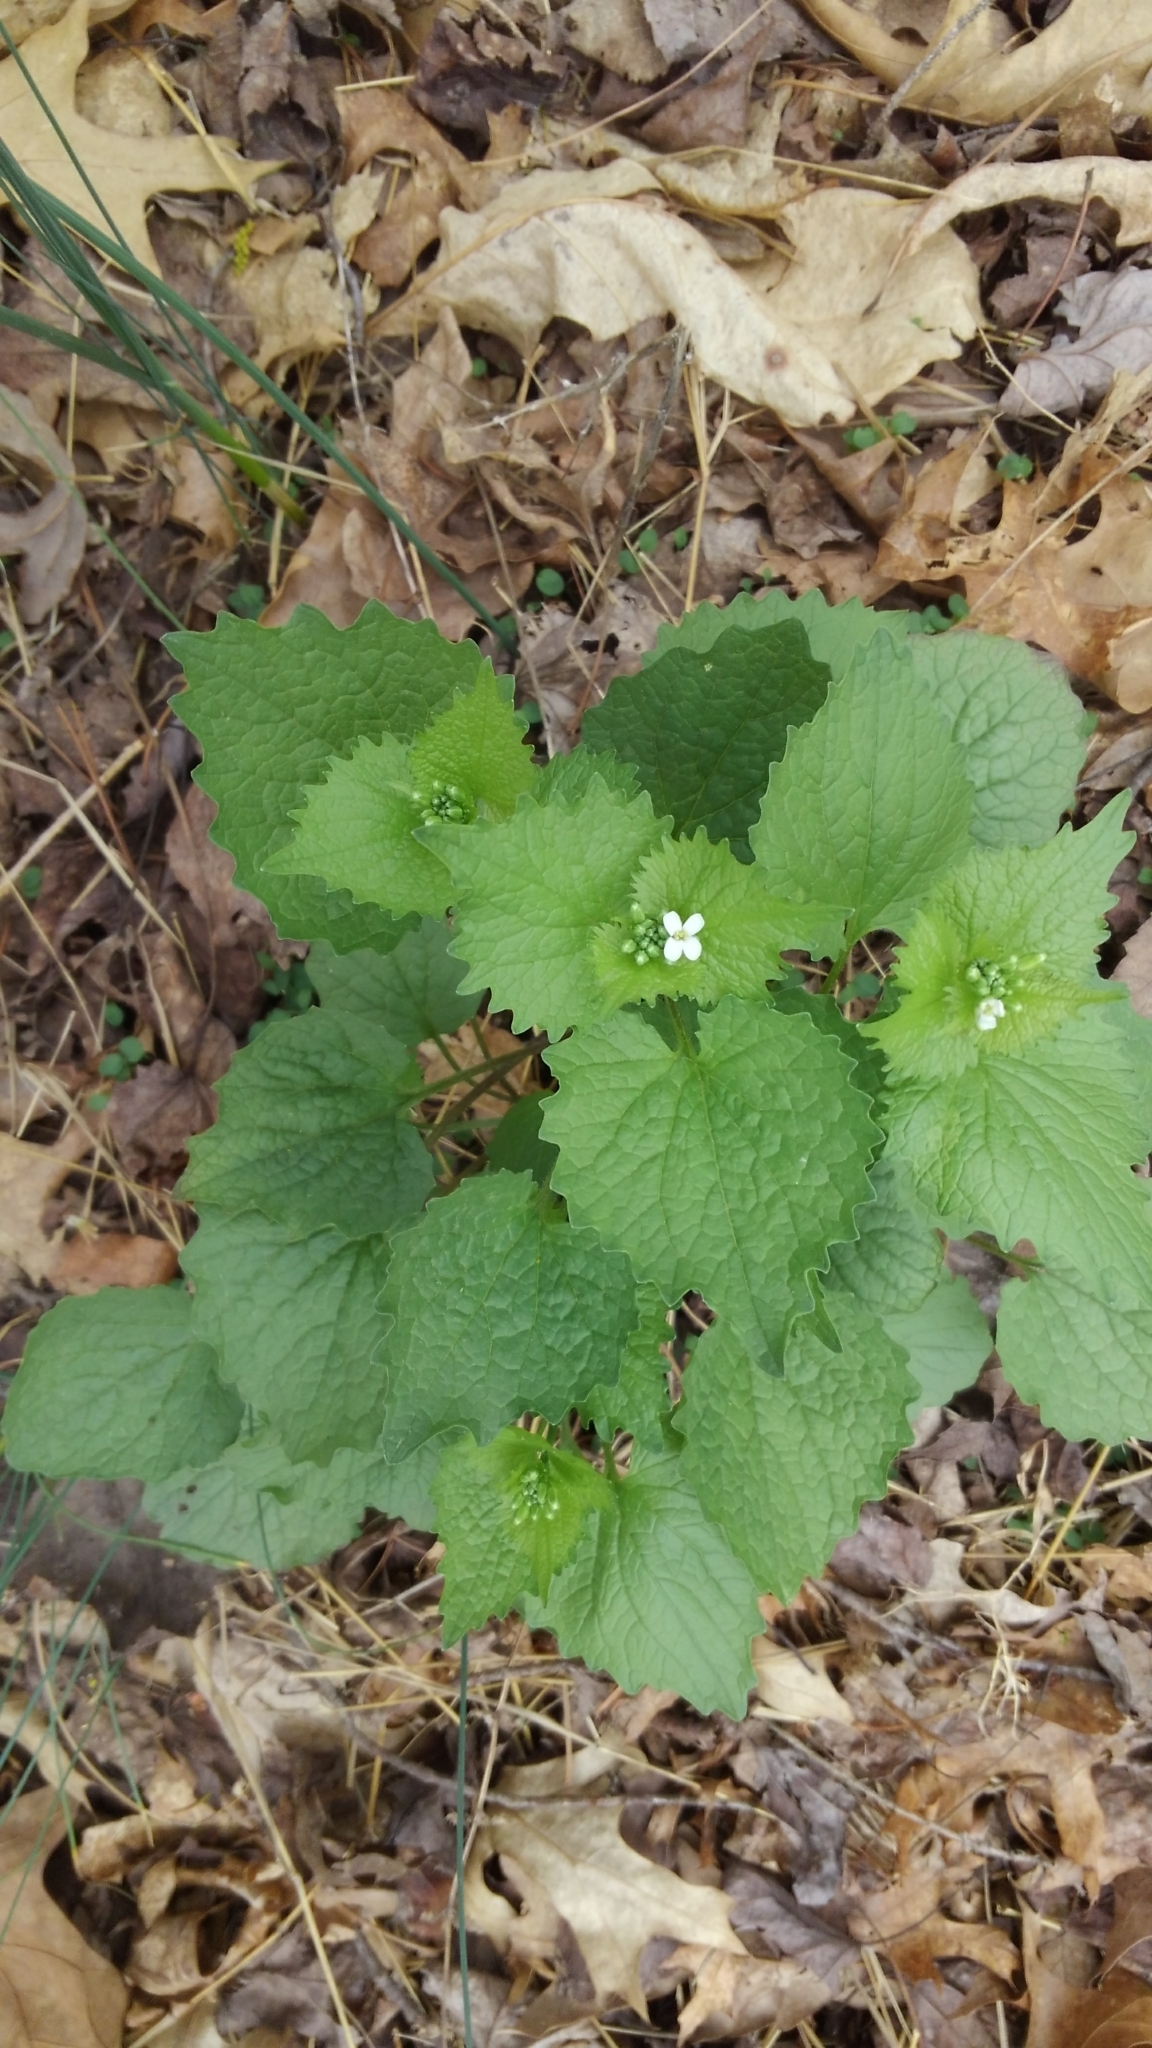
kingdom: Plantae
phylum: Tracheophyta
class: Magnoliopsida
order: Brassicales
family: Brassicaceae
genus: Alliaria
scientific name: Alliaria petiolata
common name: Garlic mustard
